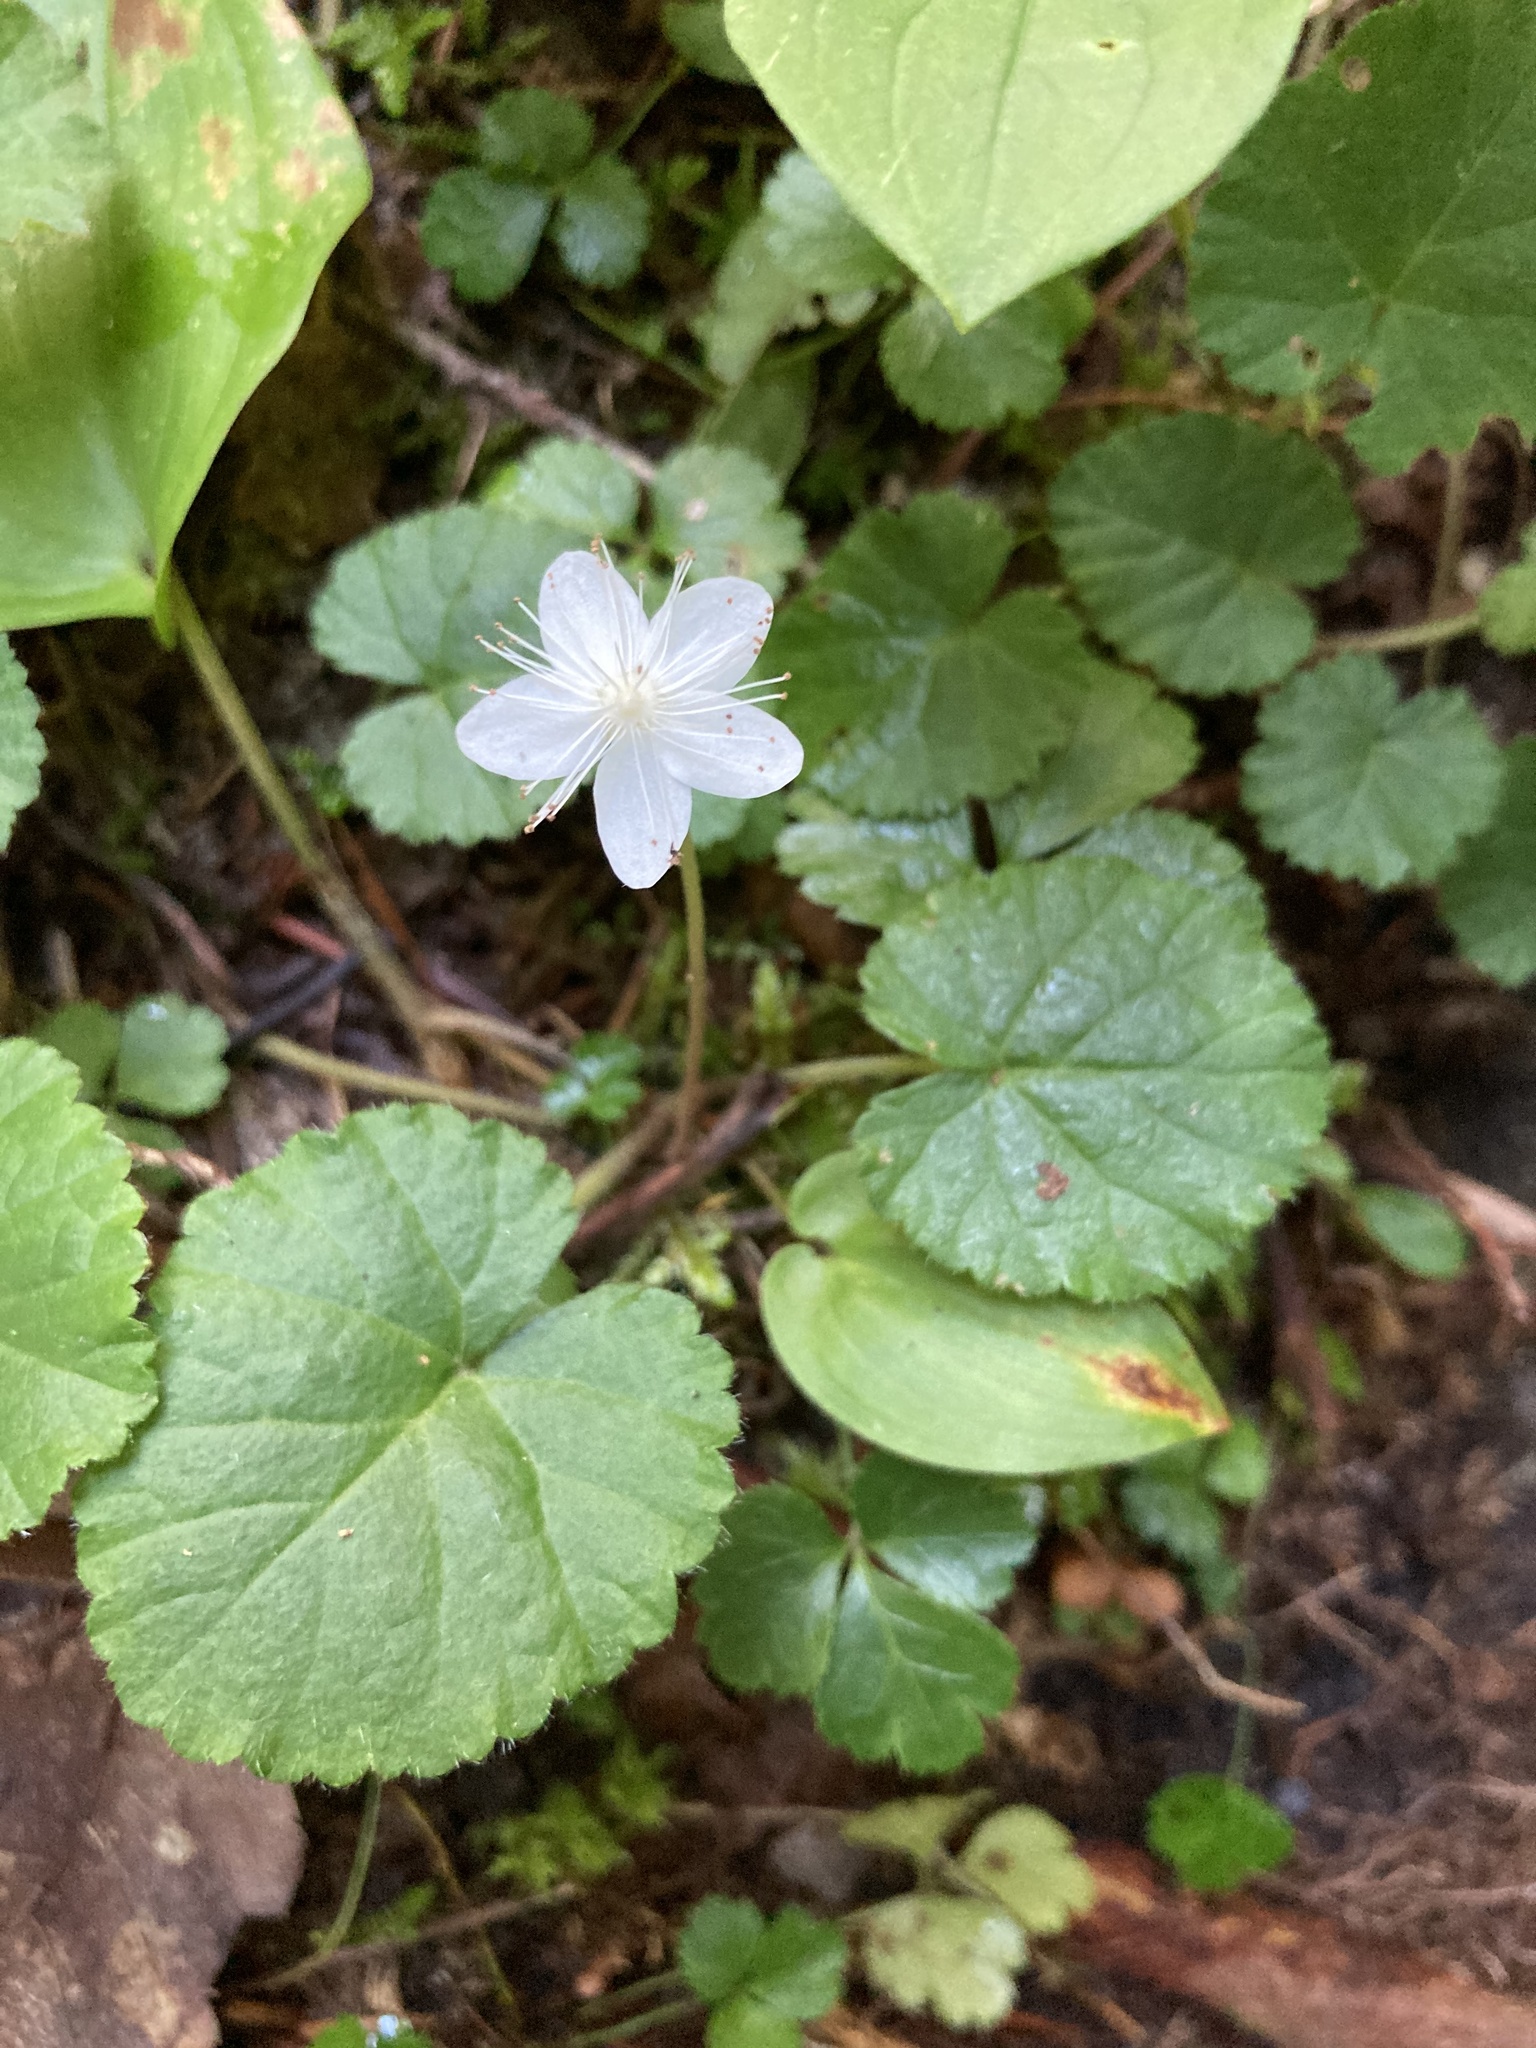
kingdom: Plantae
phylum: Tracheophyta
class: Magnoliopsida
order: Rosales
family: Rosaceae
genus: Dalibarda
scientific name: Dalibarda repens
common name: Dewdrop
